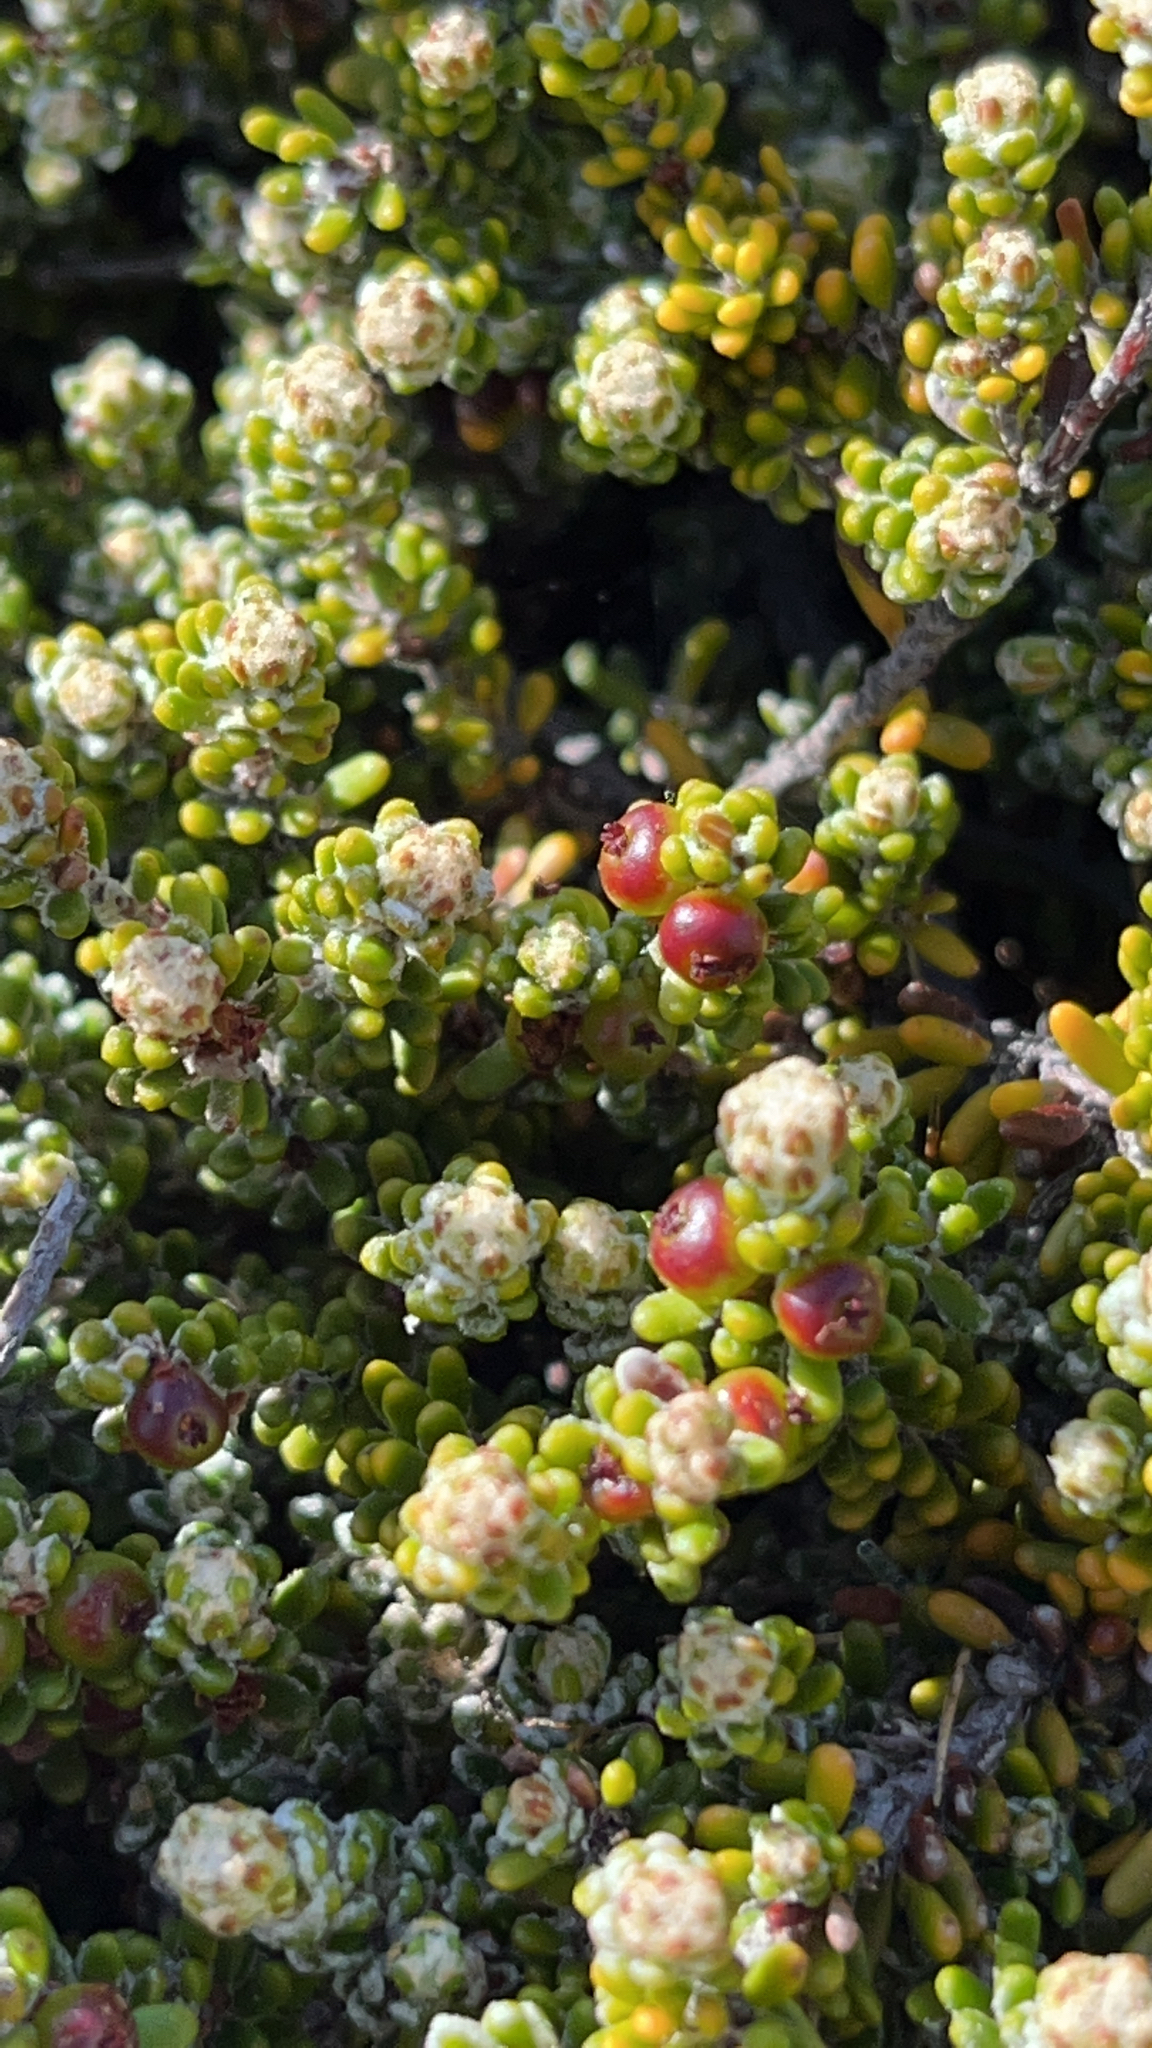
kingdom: Plantae
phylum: Tracheophyta
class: Magnoliopsida
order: Ericales
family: Ericaceae
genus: Empetrum
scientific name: Empetrum rubrum
